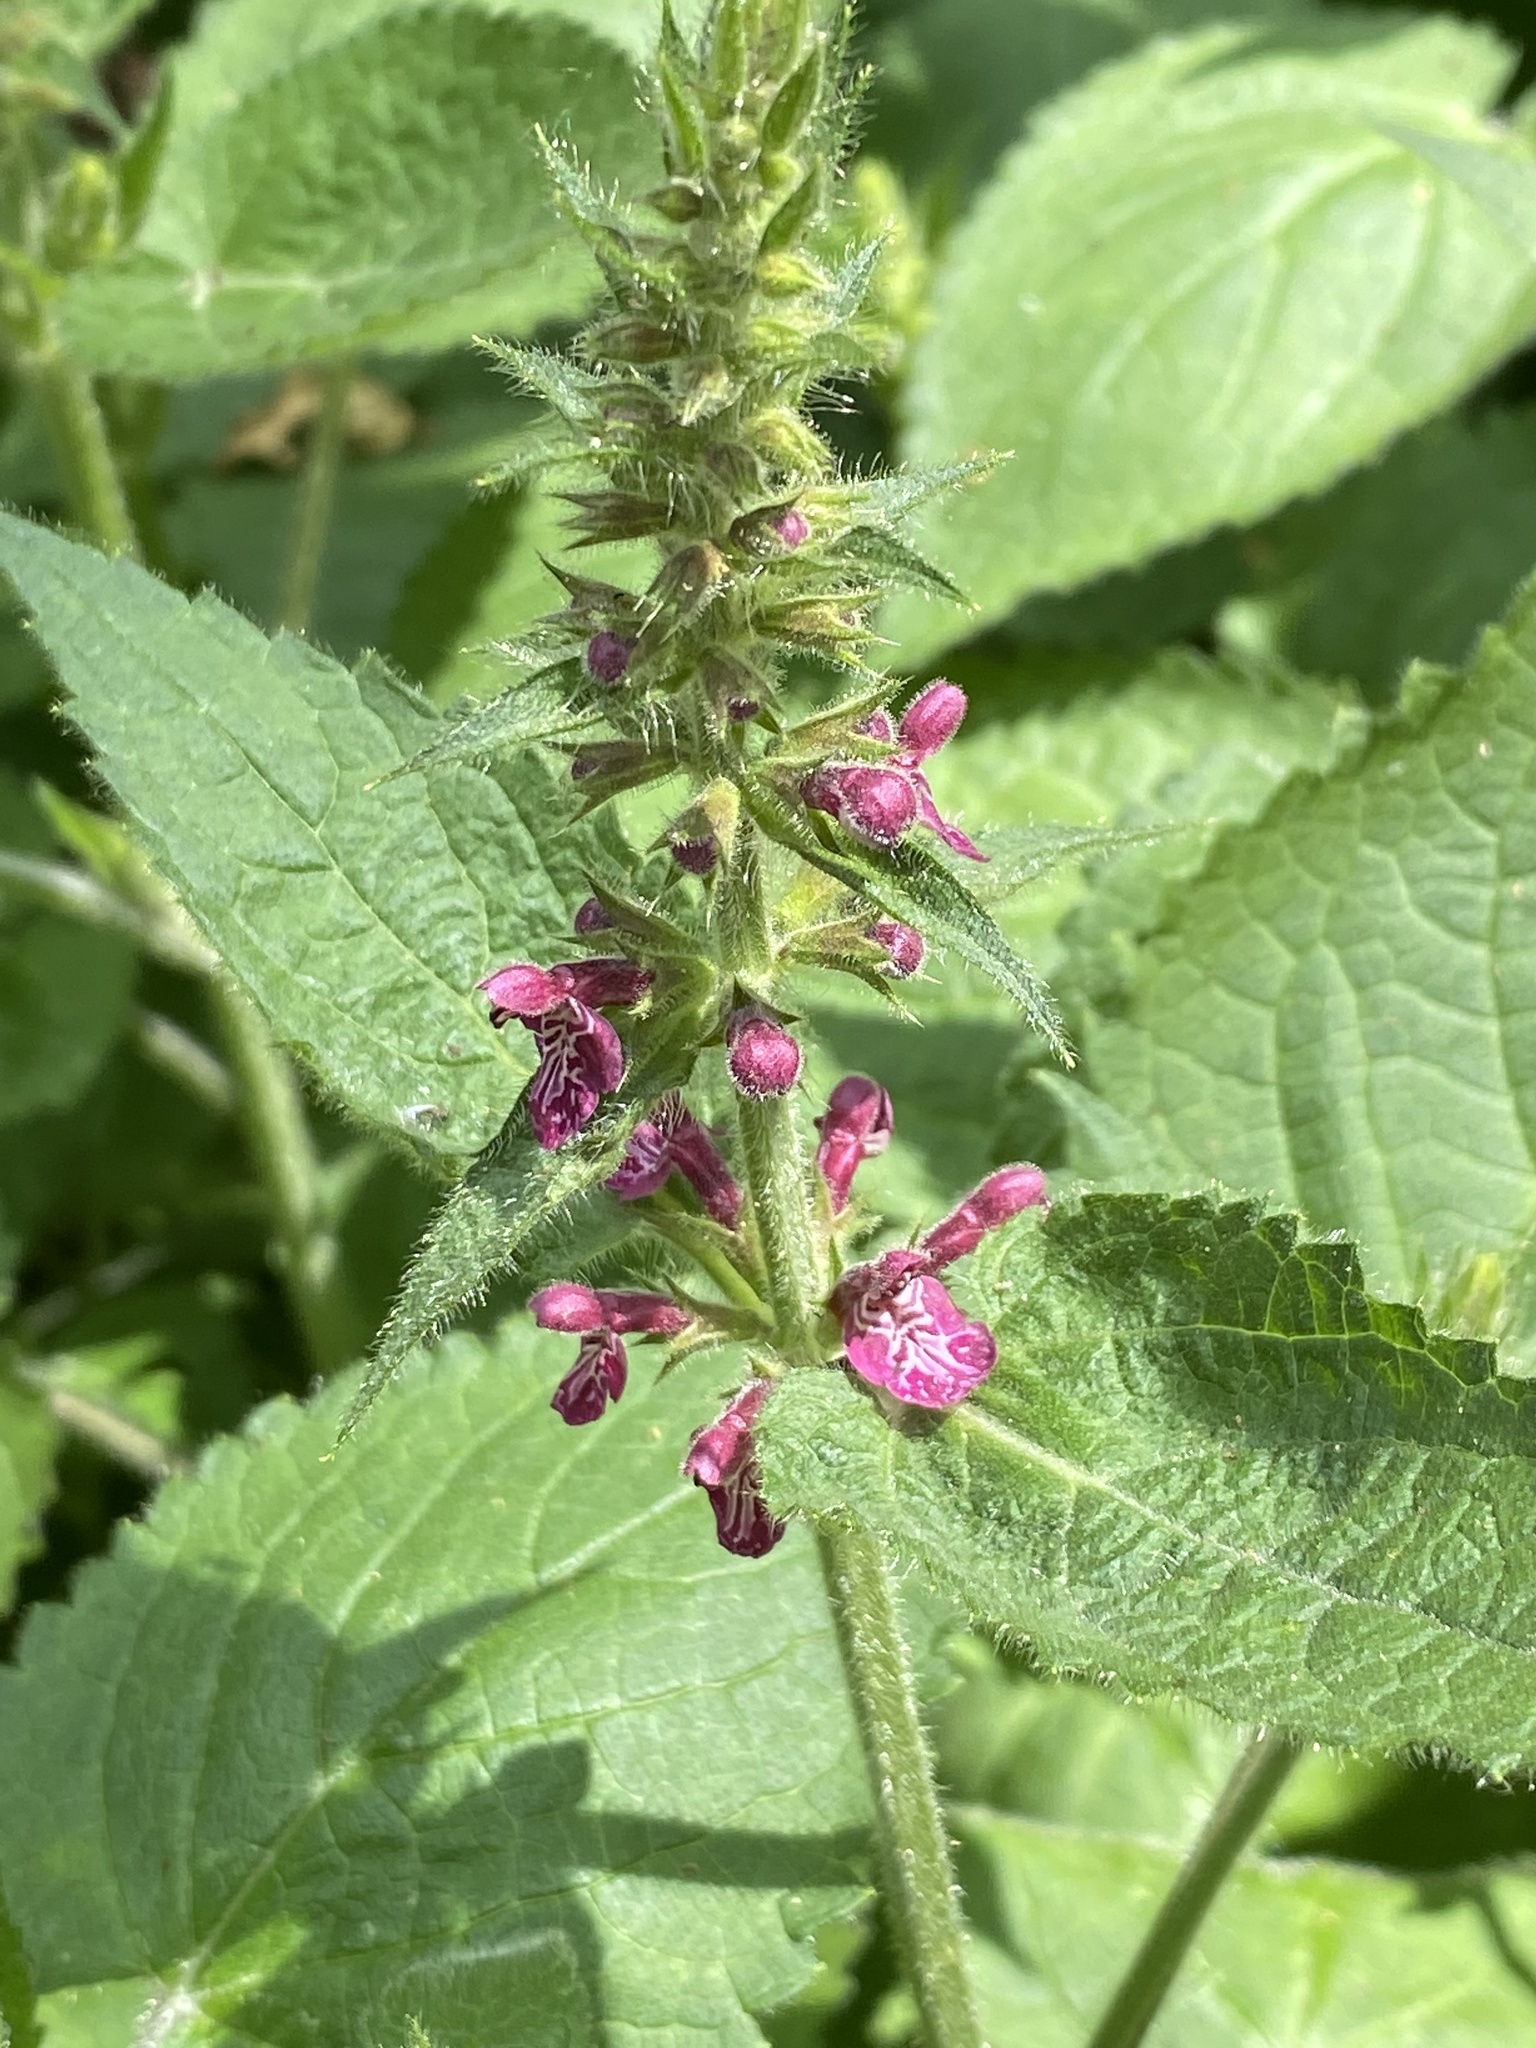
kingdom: Plantae
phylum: Tracheophyta
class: Magnoliopsida
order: Lamiales
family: Lamiaceae
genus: Stachys
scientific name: Stachys sylvatica
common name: Hedge woundwort
